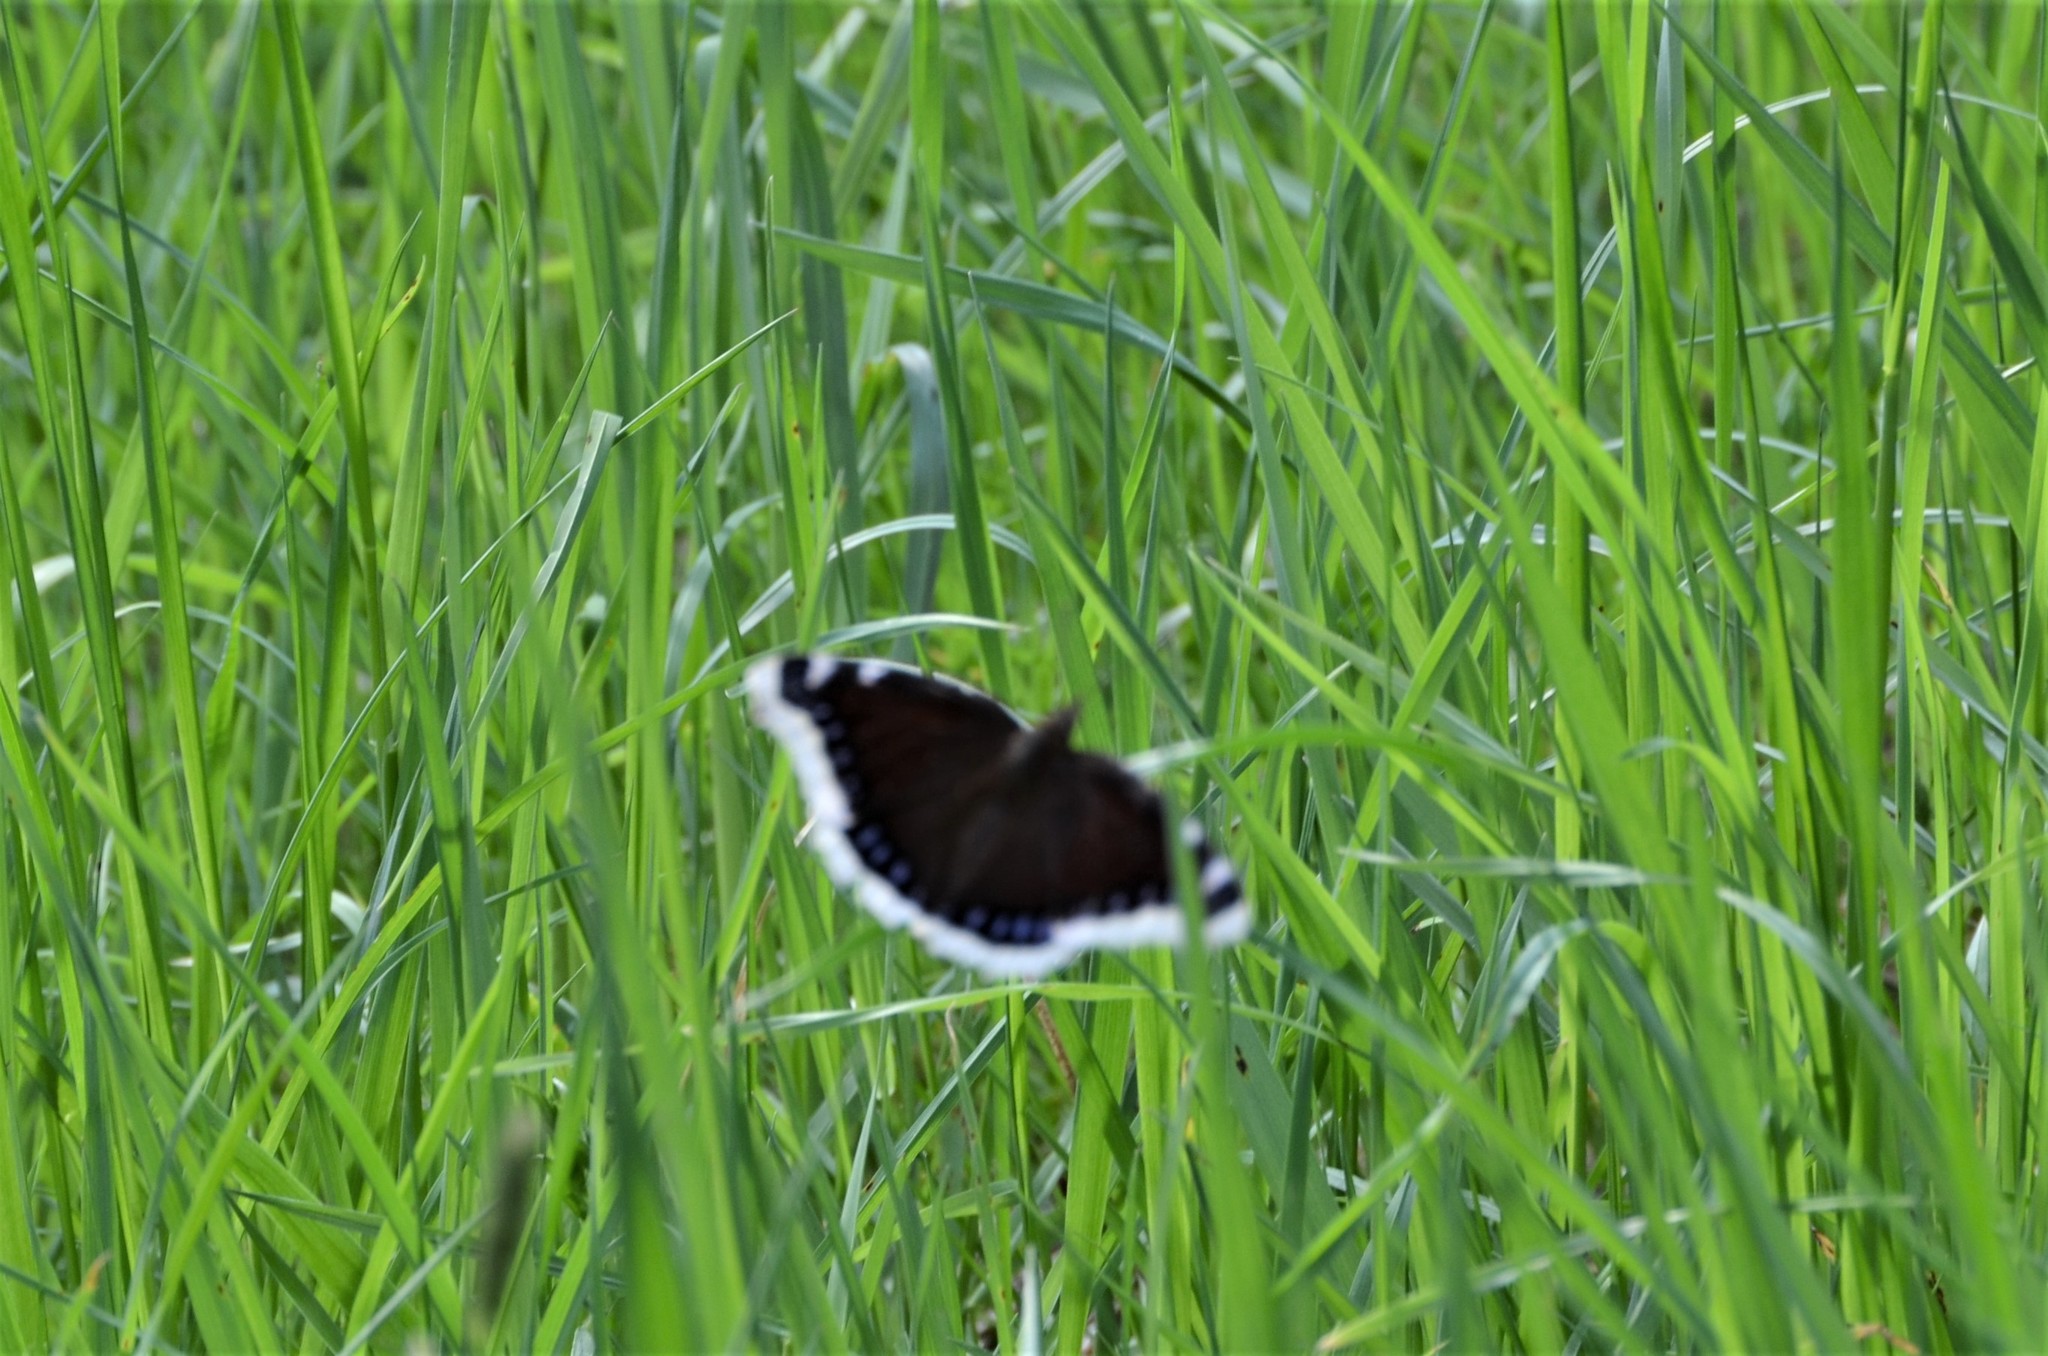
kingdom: Animalia
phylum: Arthropoda
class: Insecta
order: Lepidoptera
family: Nymphalidae
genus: Nymphalis
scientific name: Nymphalis antiopa
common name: Camberwell beauty
